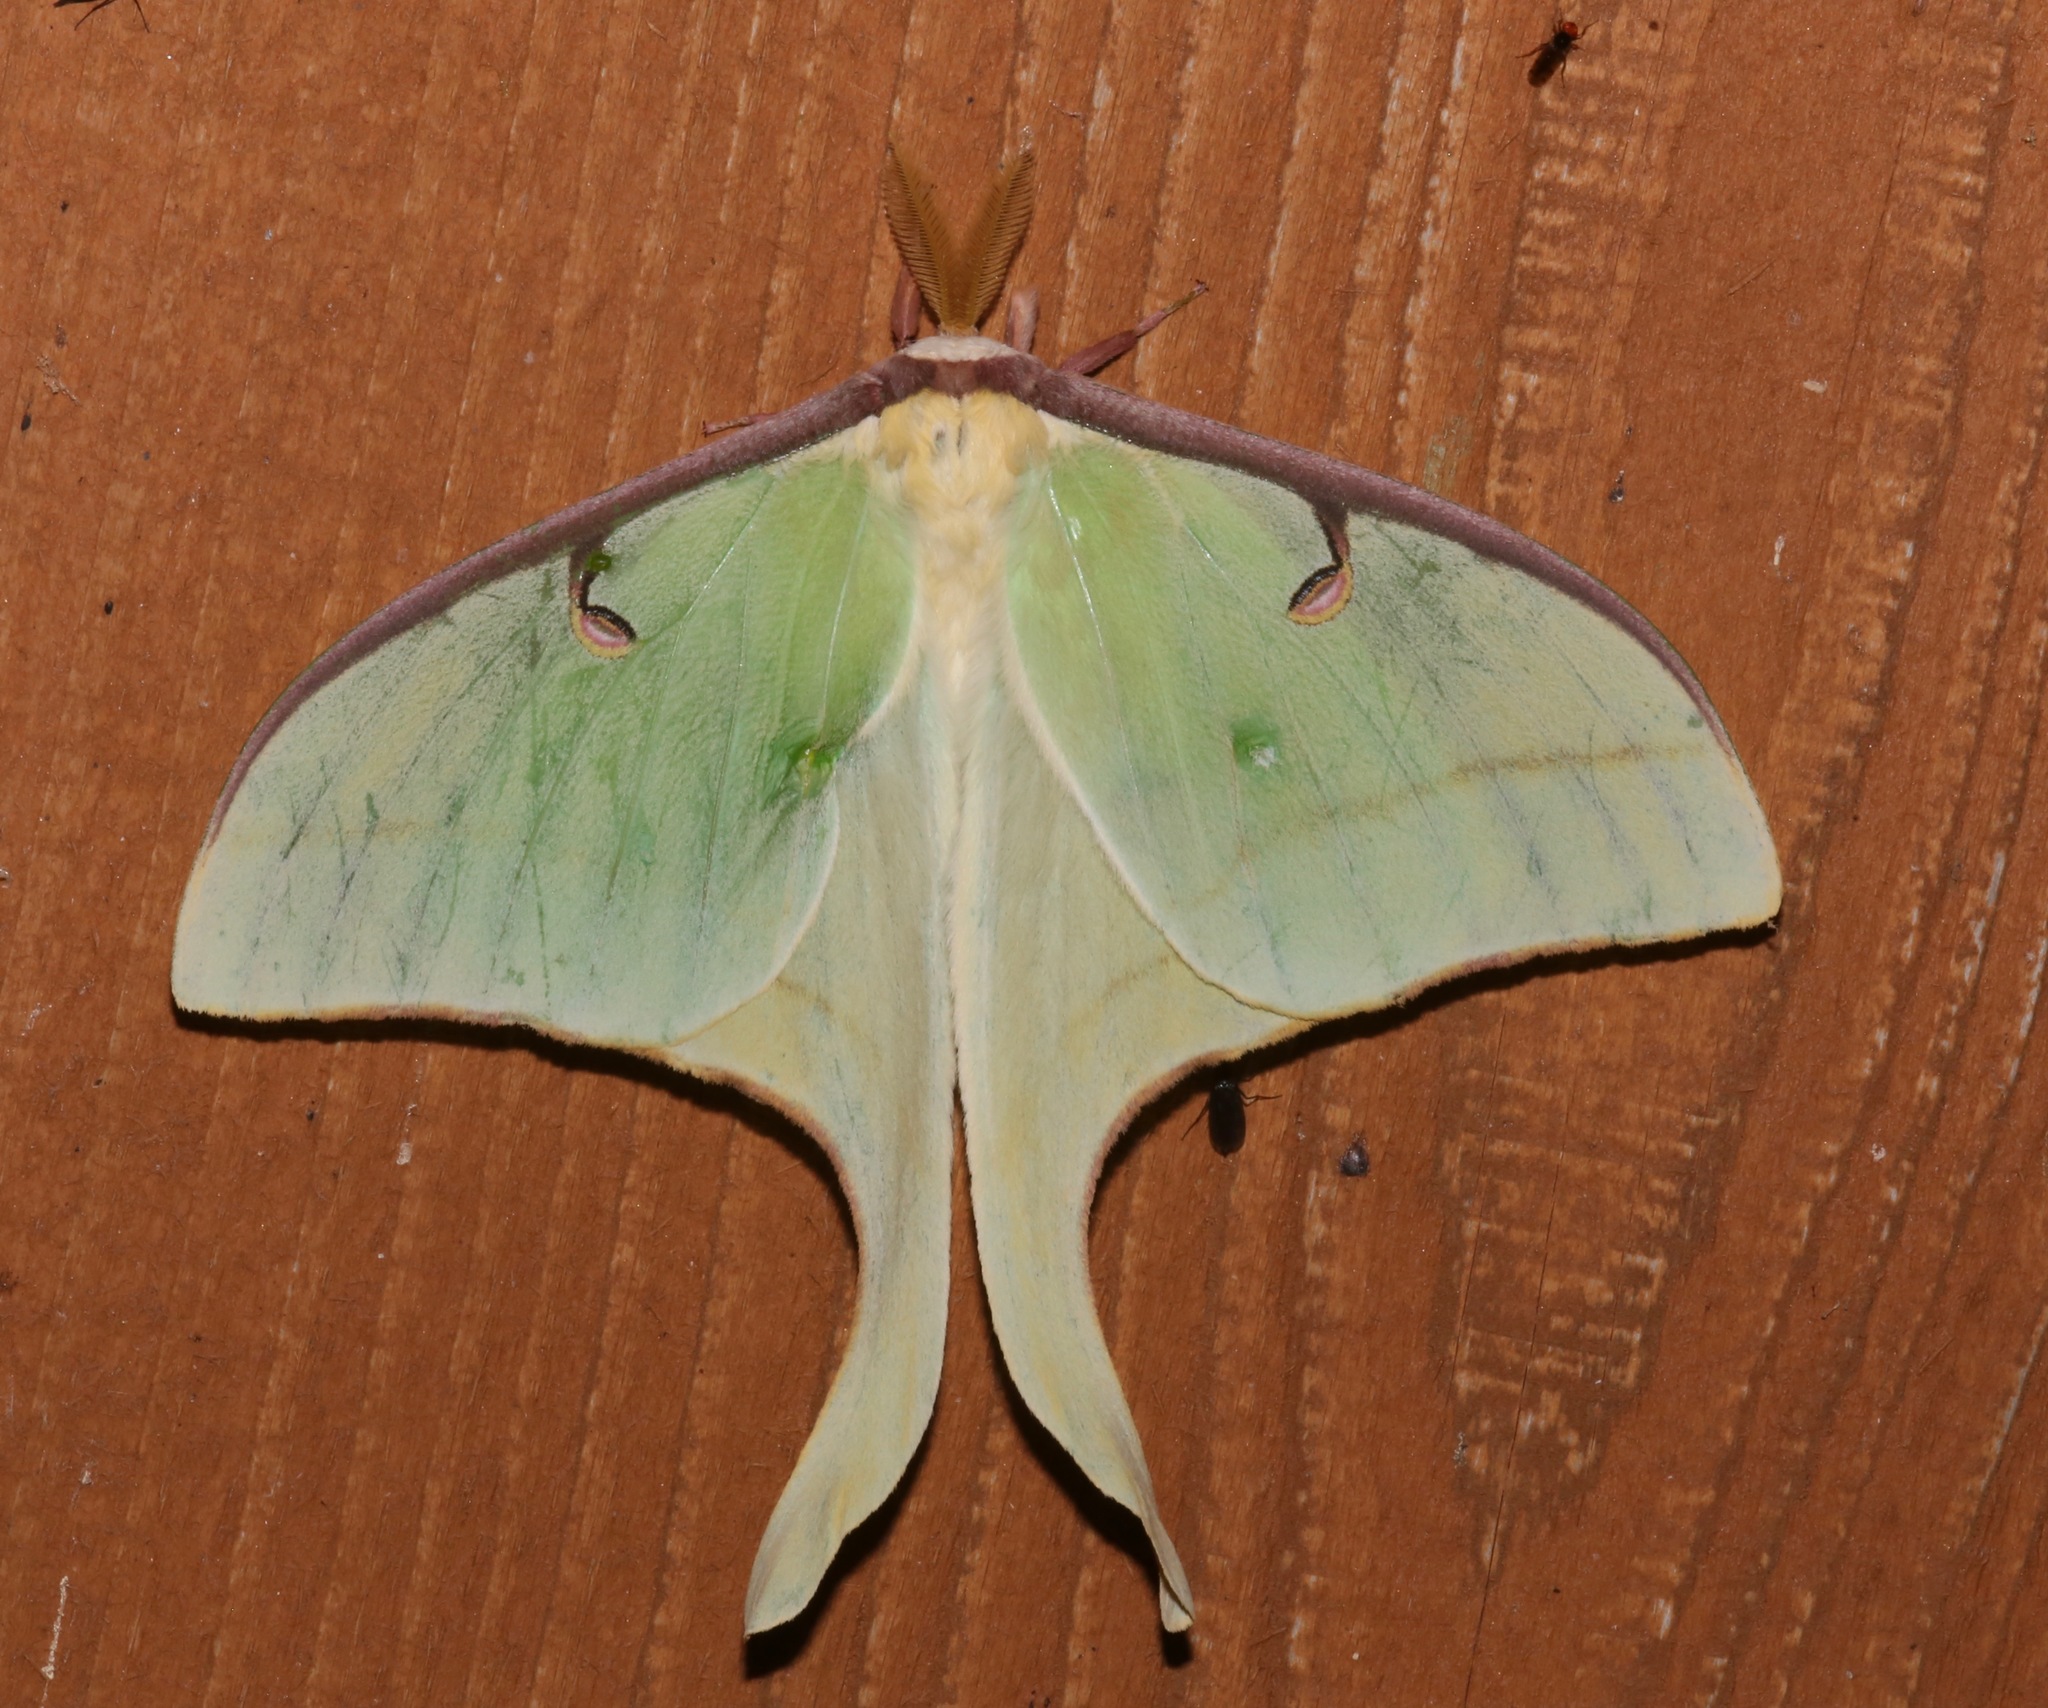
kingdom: Animalia
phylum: Arthropoda
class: Insecta
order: Lepidoptera
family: Saturniidae
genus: Actias
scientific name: Actias luna
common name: Luna moth
